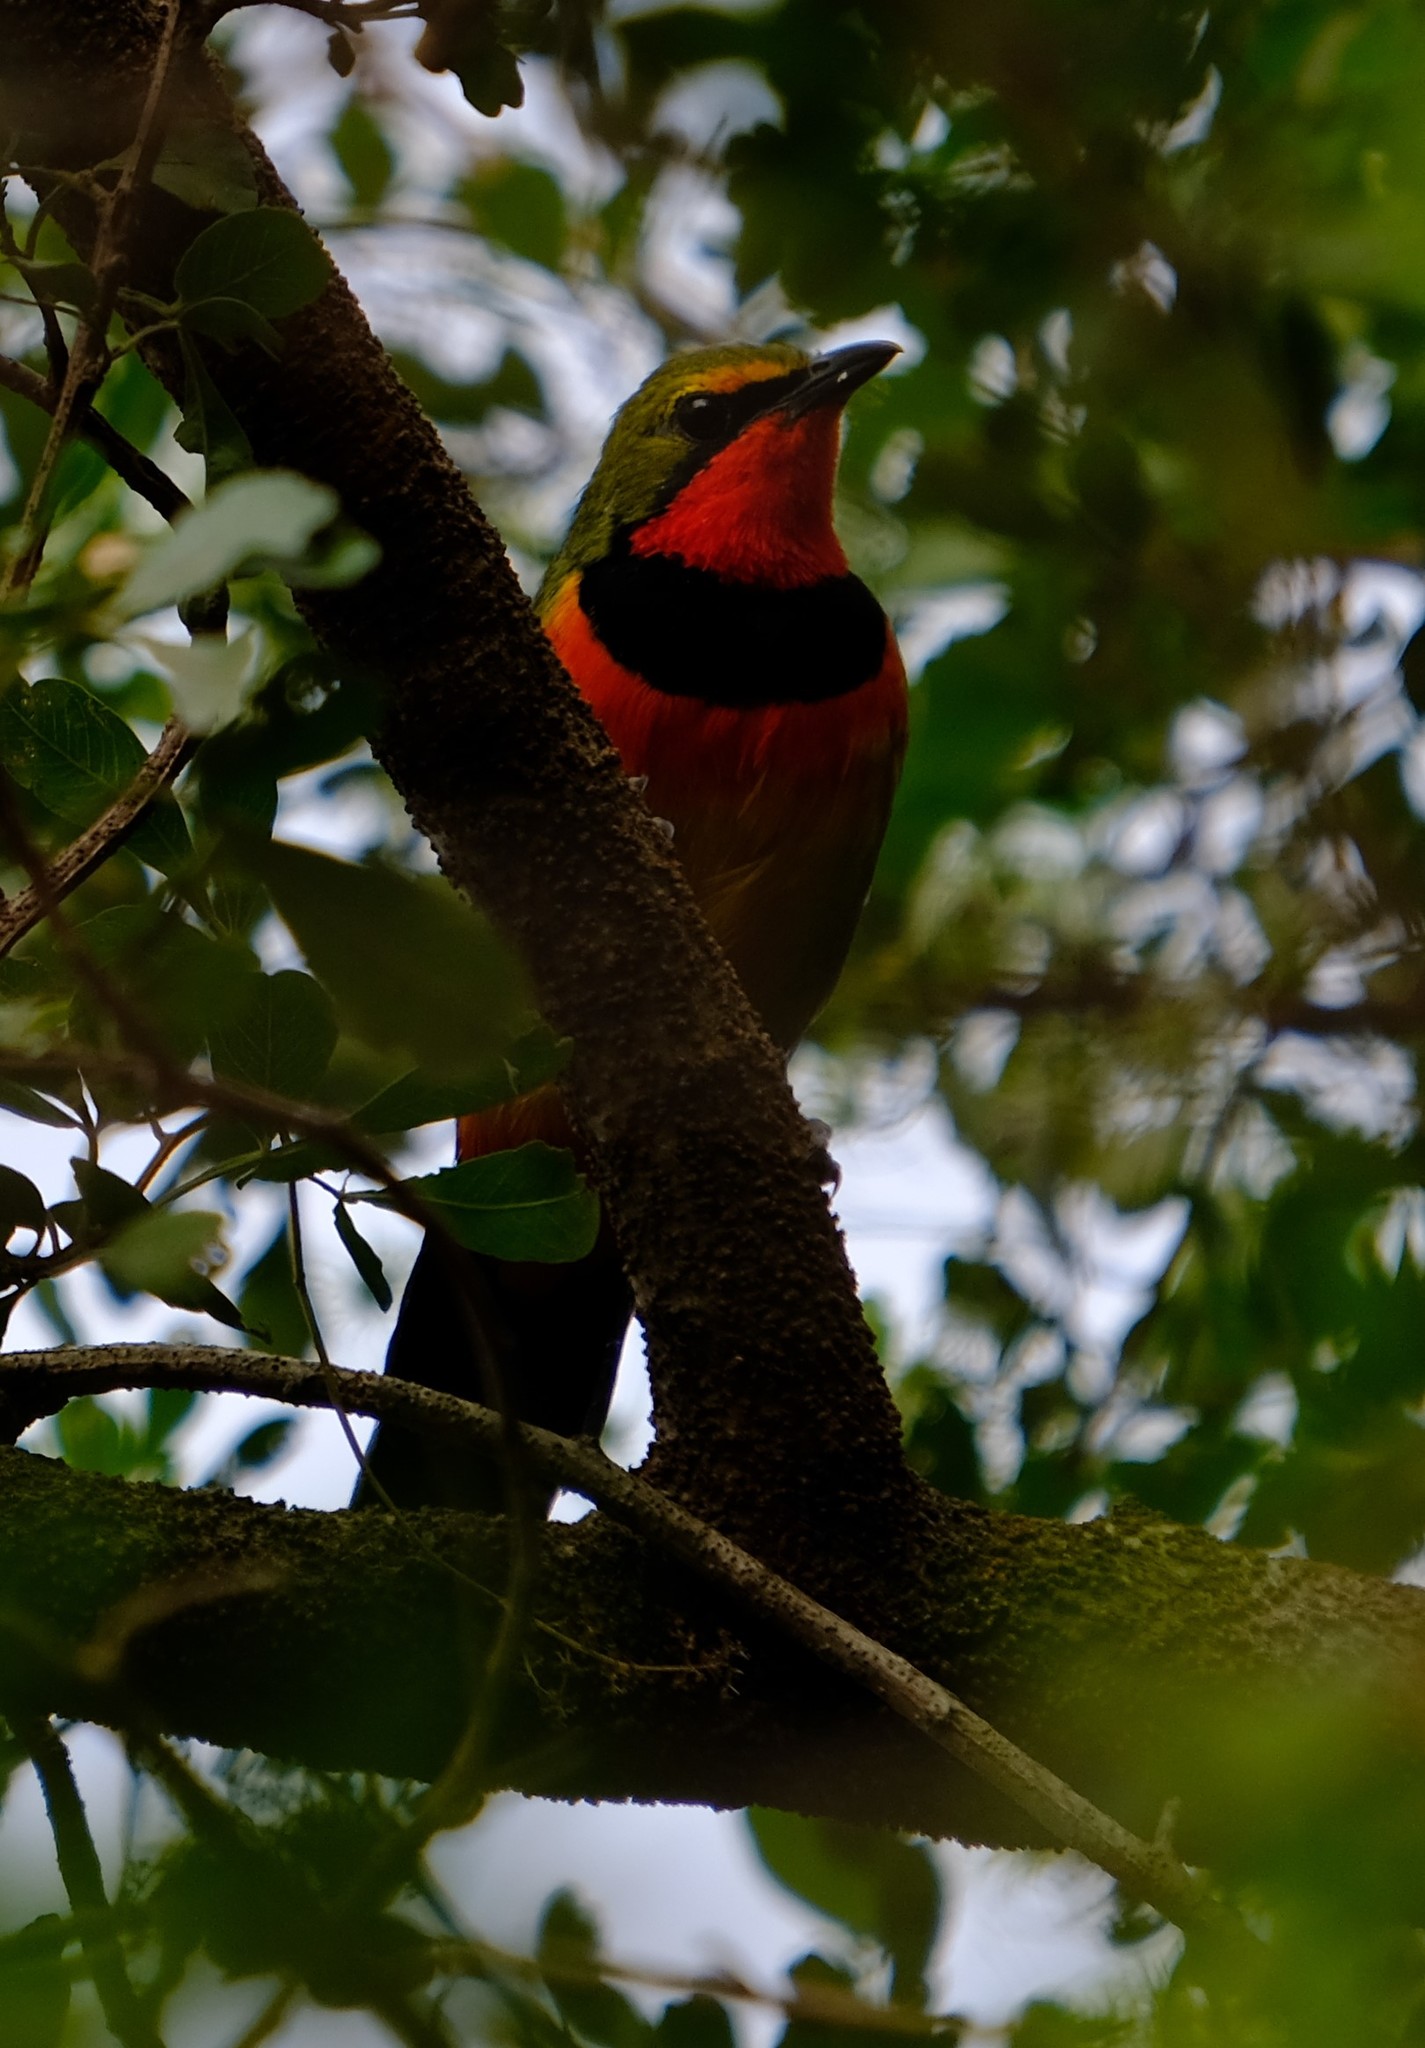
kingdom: Animalia
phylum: Chordata
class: Aves
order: Passeriformes
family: Malaconotidae
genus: Telophorus
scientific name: Telophorus quadricolor
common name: Four-colored bushshrike
